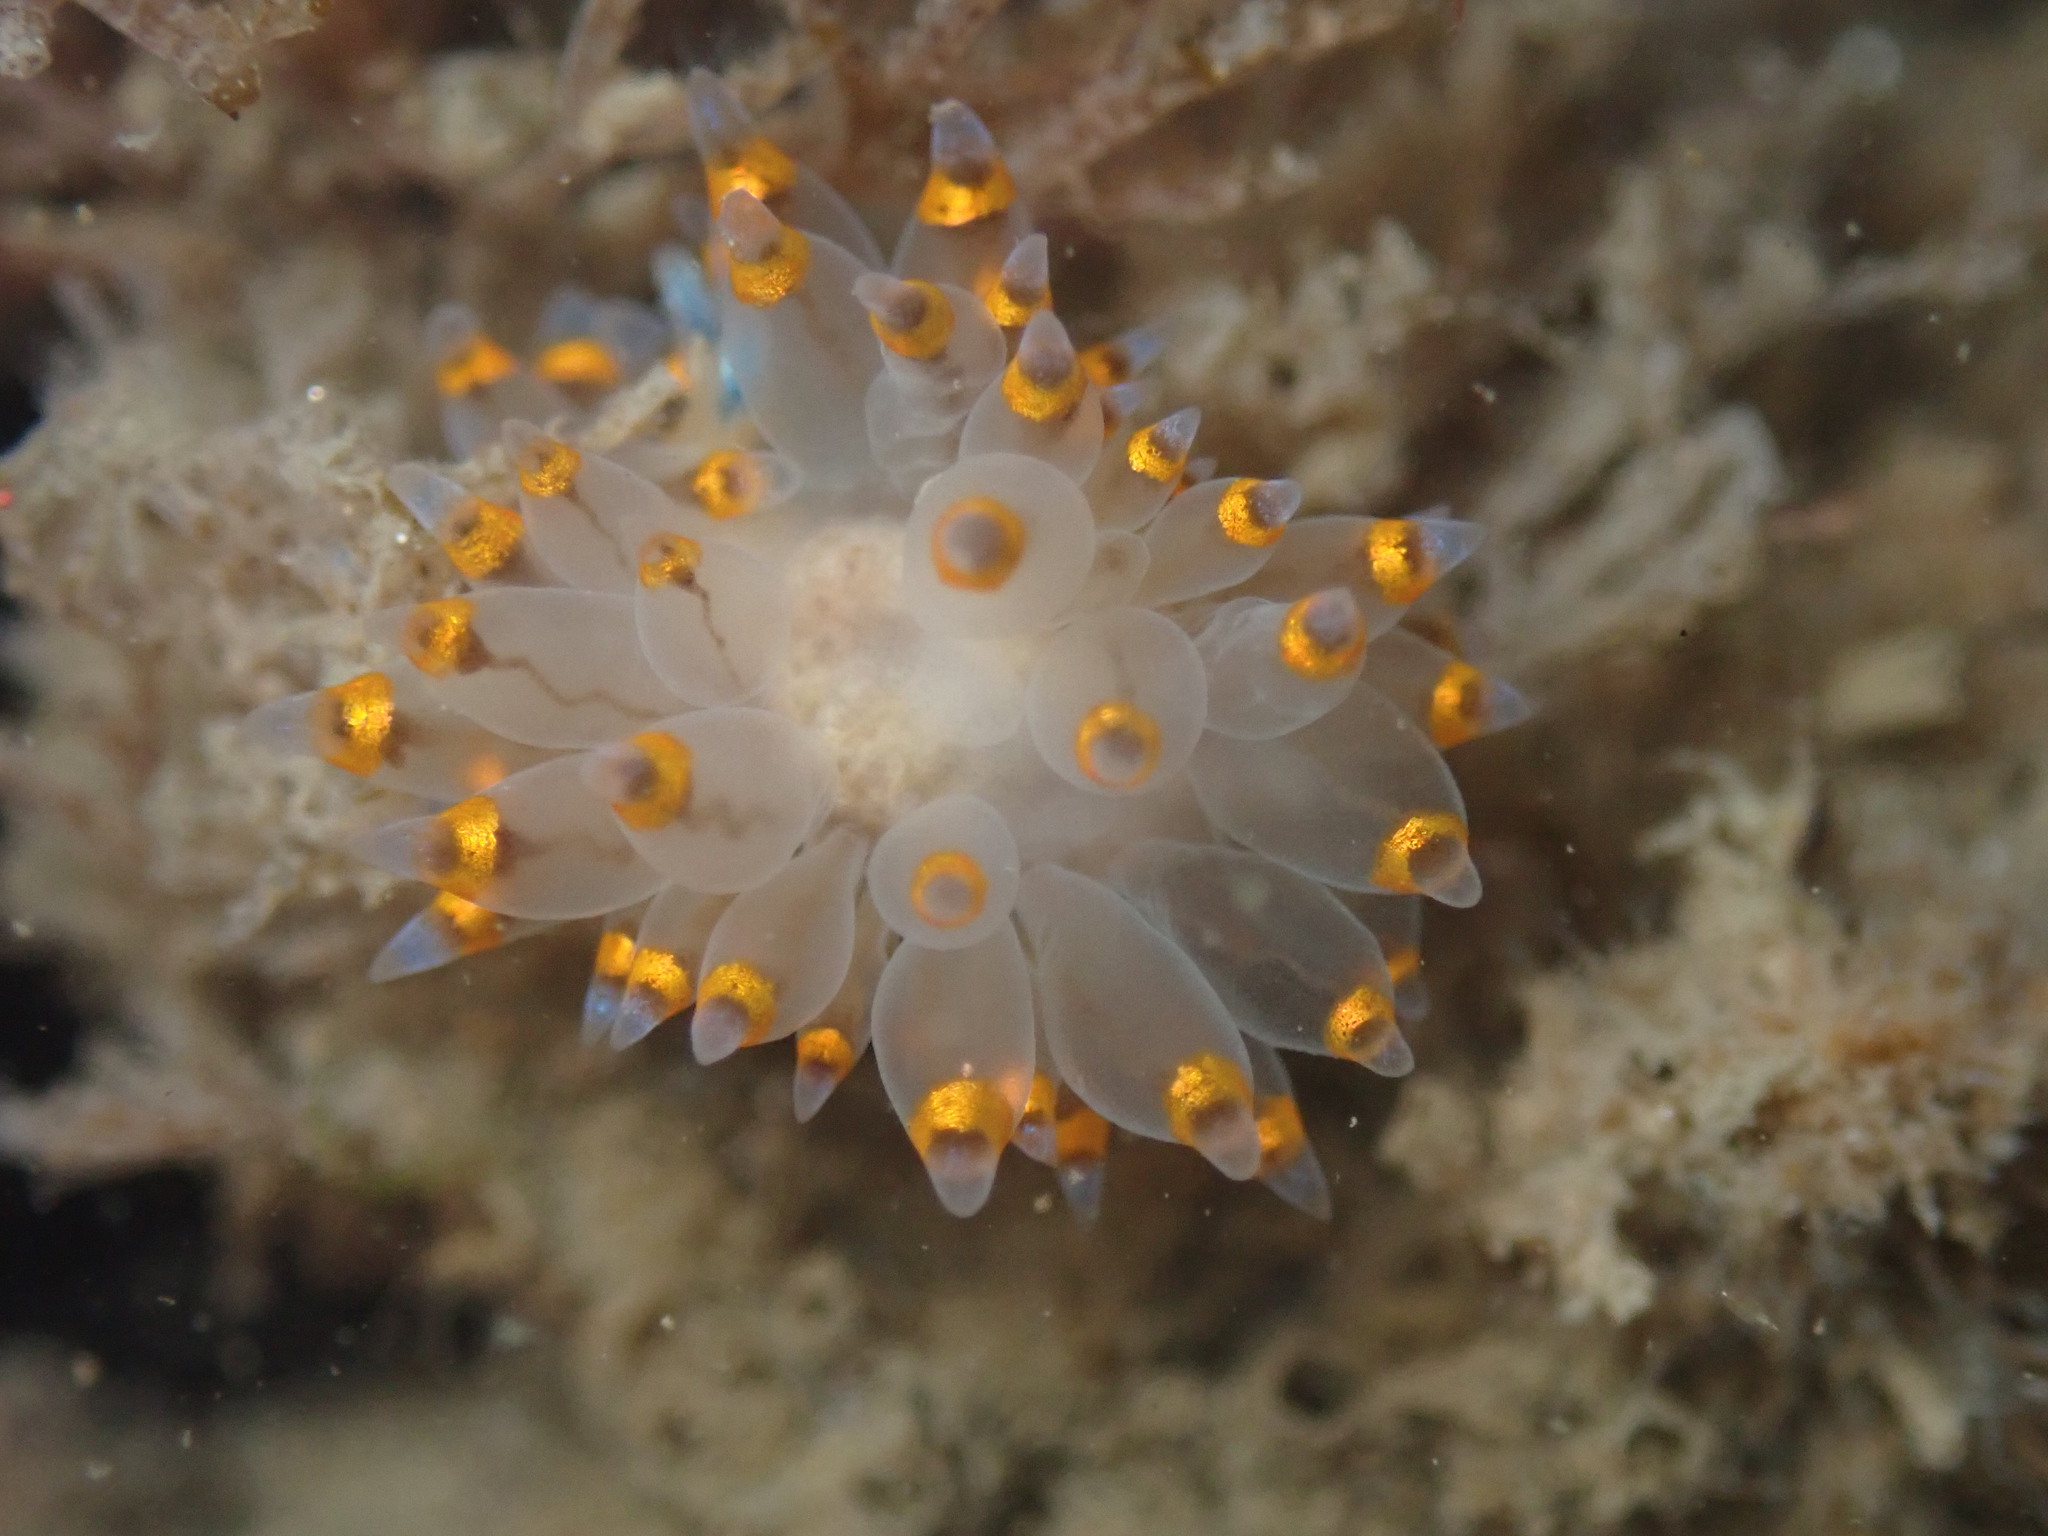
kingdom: Animalia
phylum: Mollusca
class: Gastropoda
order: Nudibranchia
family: Janolidae
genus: Antiopella
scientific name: Antiopella barbarensis
